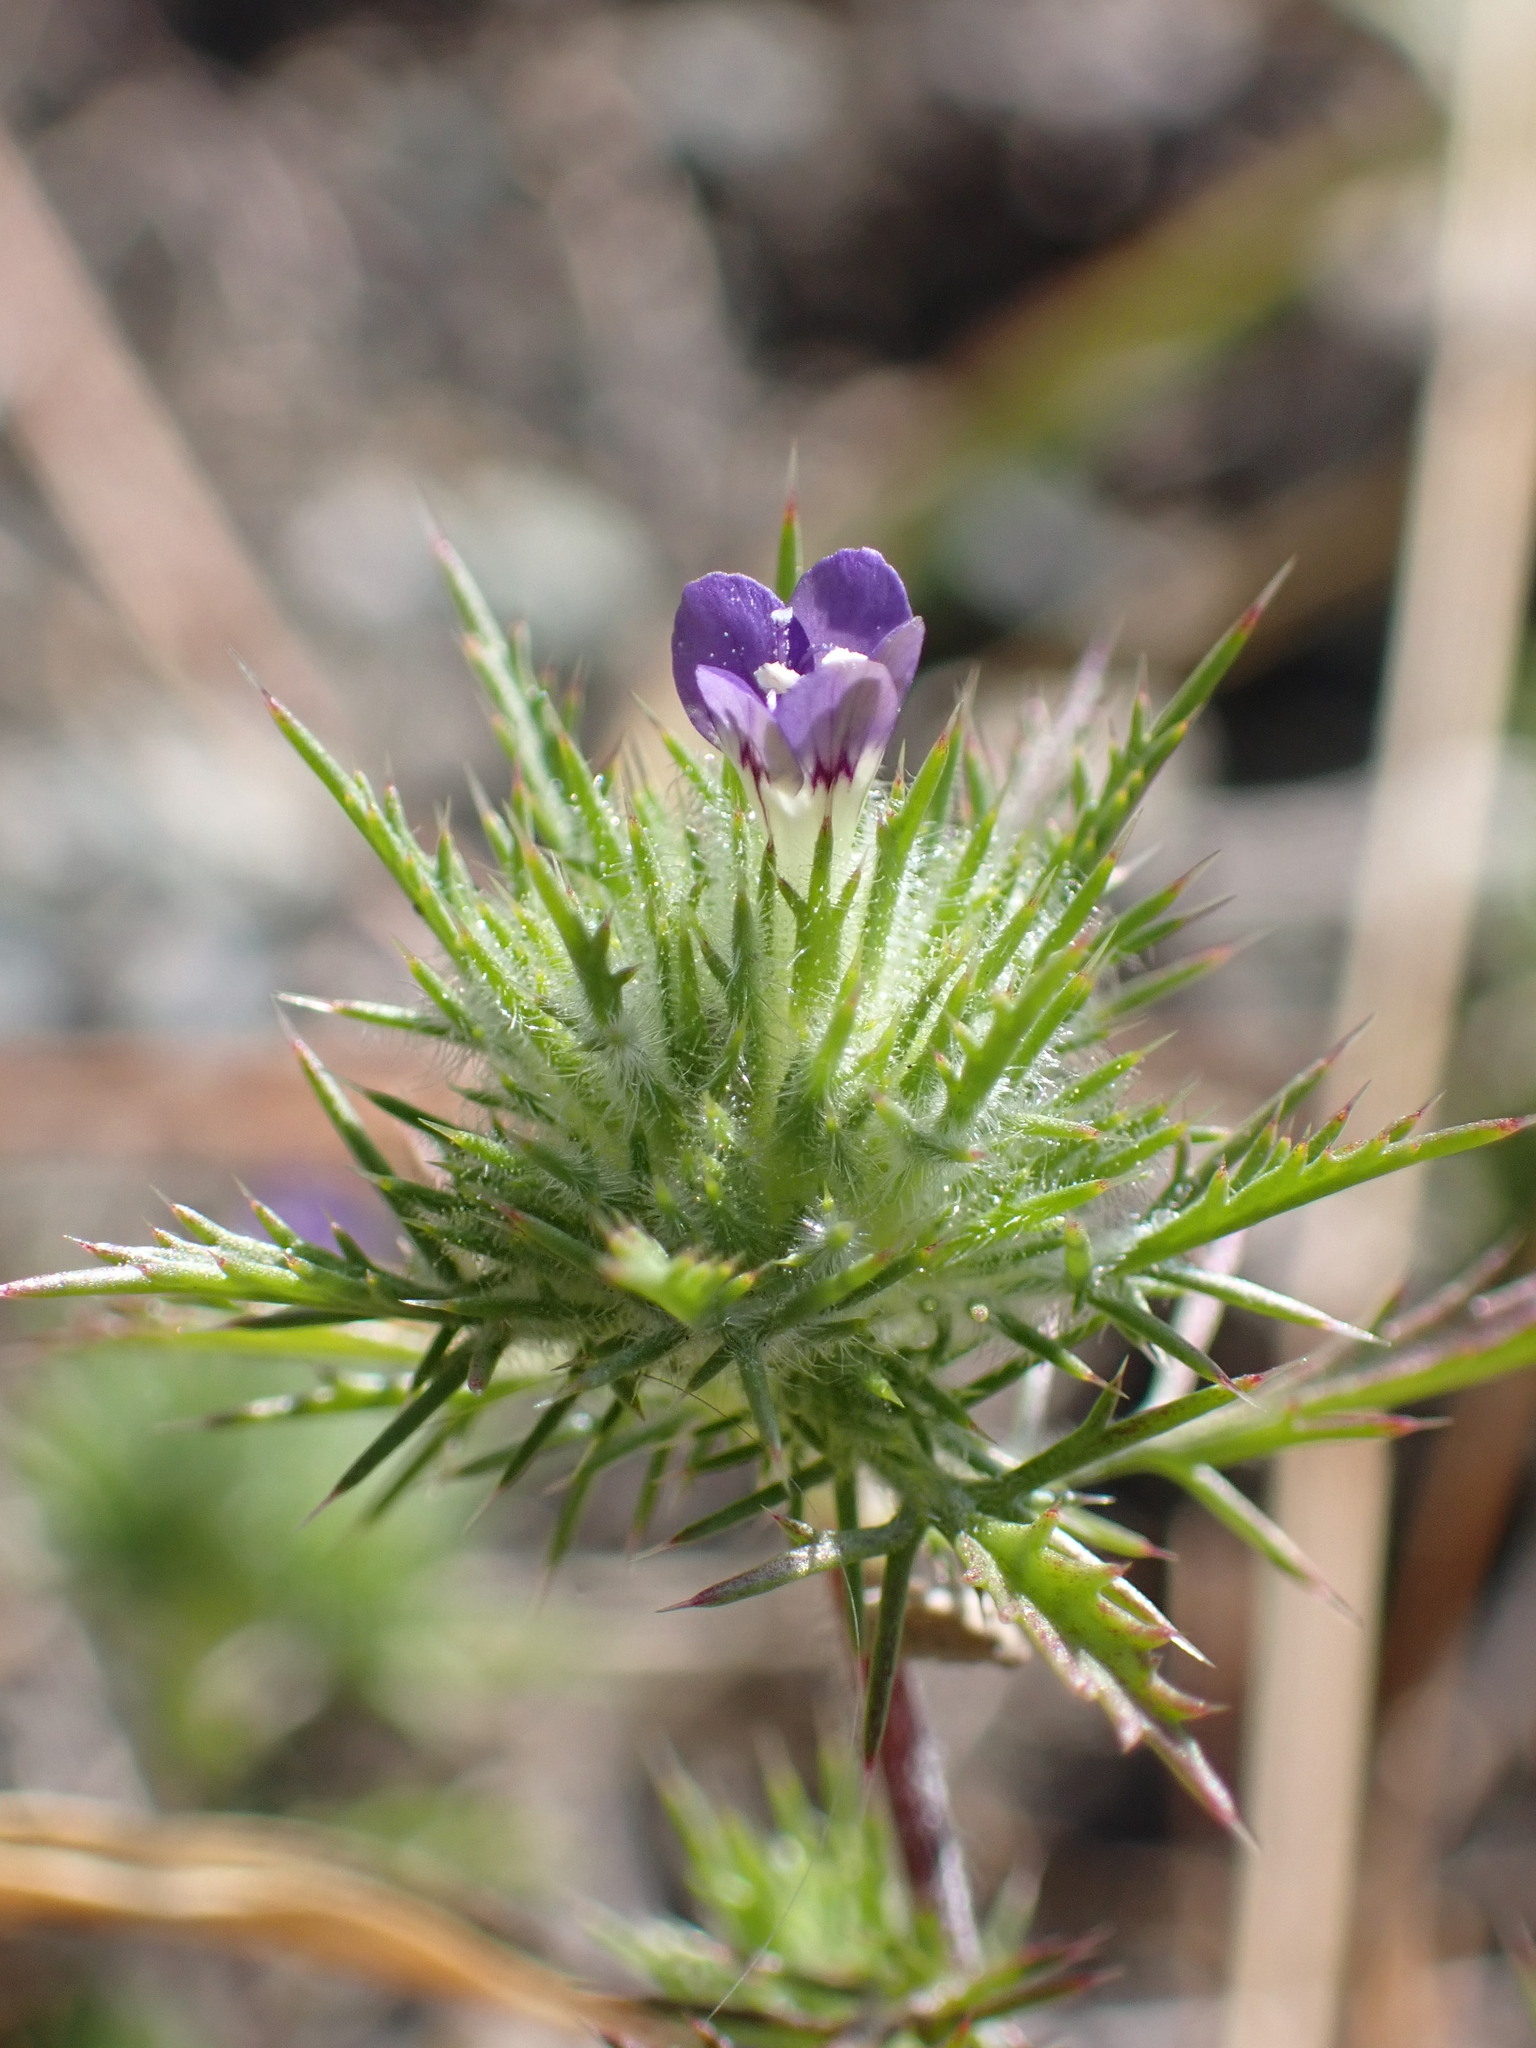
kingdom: Plantae
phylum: Tracheophyta
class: Magnoliopsida
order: Ericales
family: Polemoniaceae
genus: Navarretia
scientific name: Navarretia pubescens
